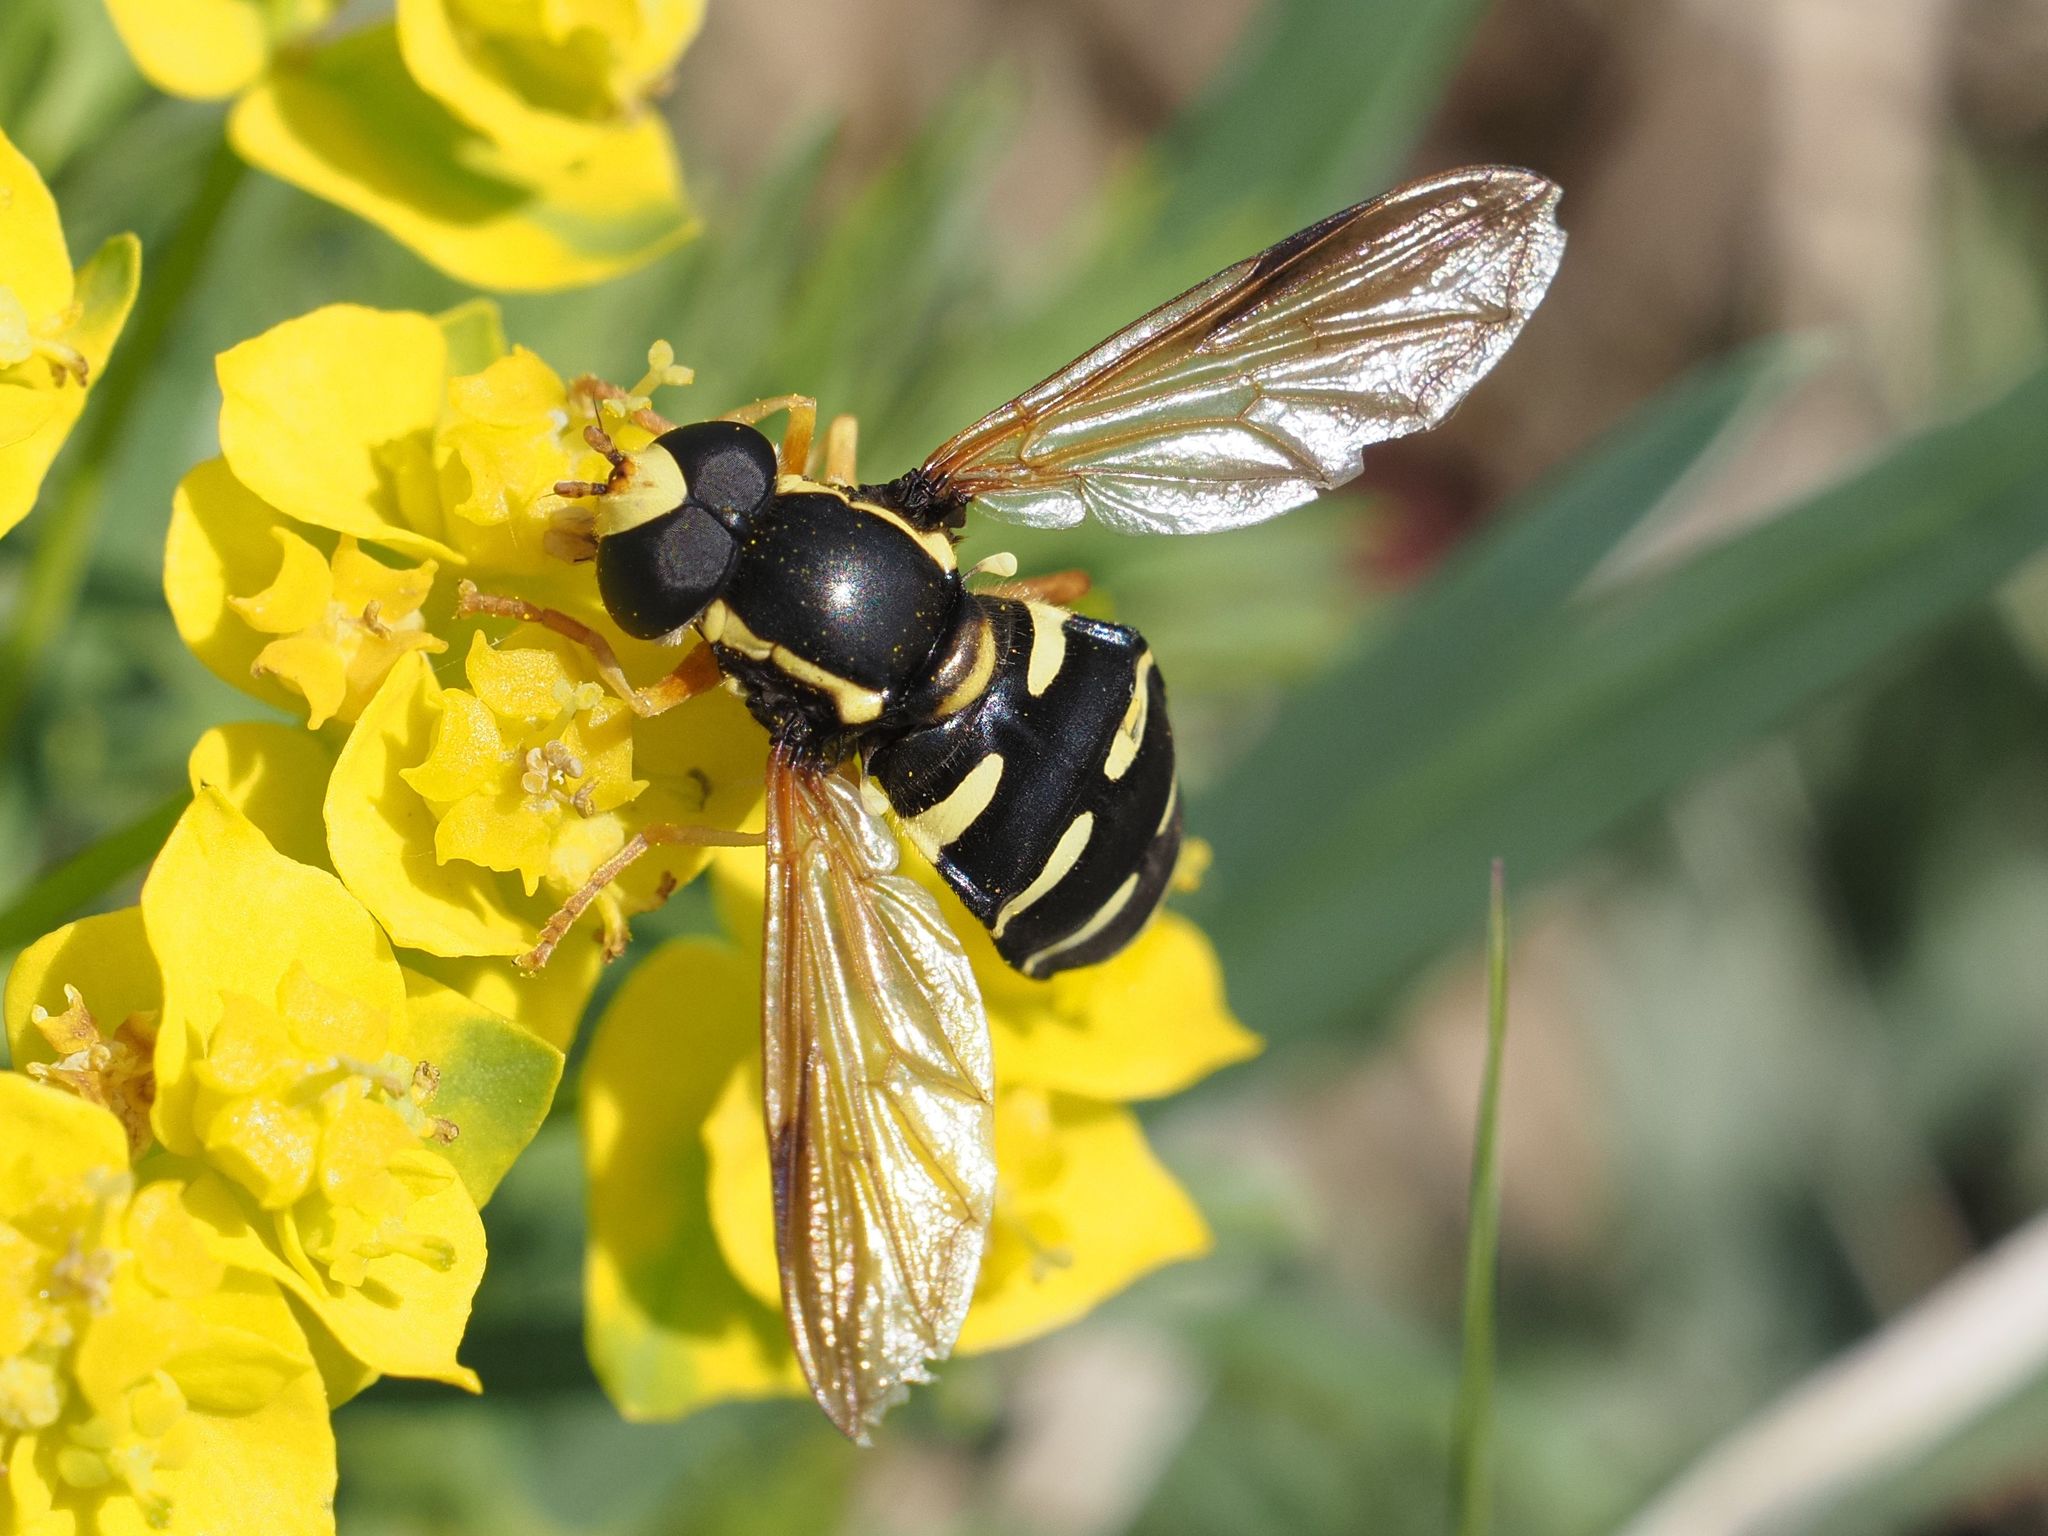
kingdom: Animalia
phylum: Arthropoda
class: Insecta
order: Diptera
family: Syrphidae
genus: Philhelius
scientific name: Philhelius citrofasciata
